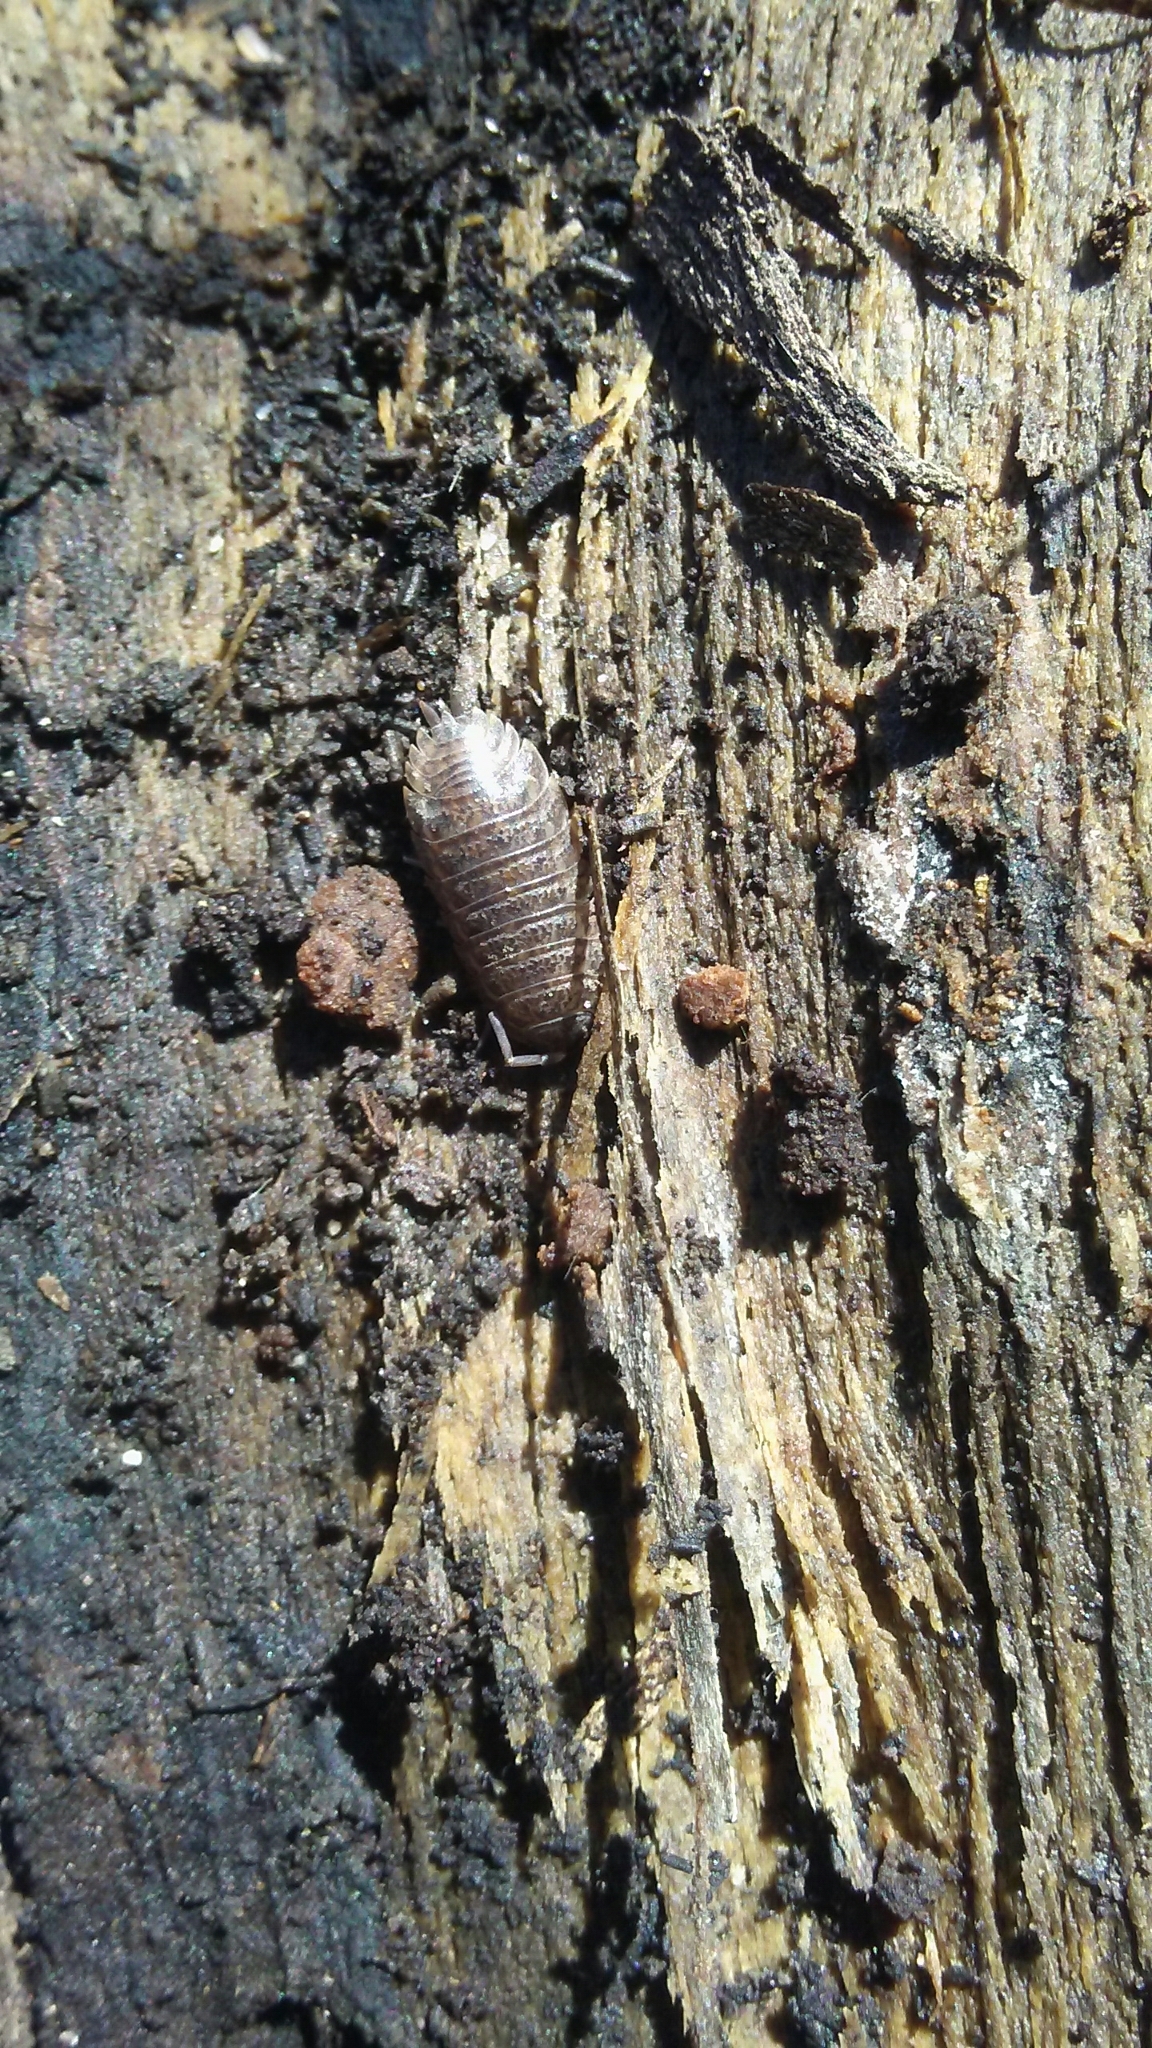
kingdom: Animalia
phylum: Arthropoda
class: Malacostraca
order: Isopoda
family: Trachelipodidae
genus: Trachelipus
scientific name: Trachelipus rathkii
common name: Isopod
